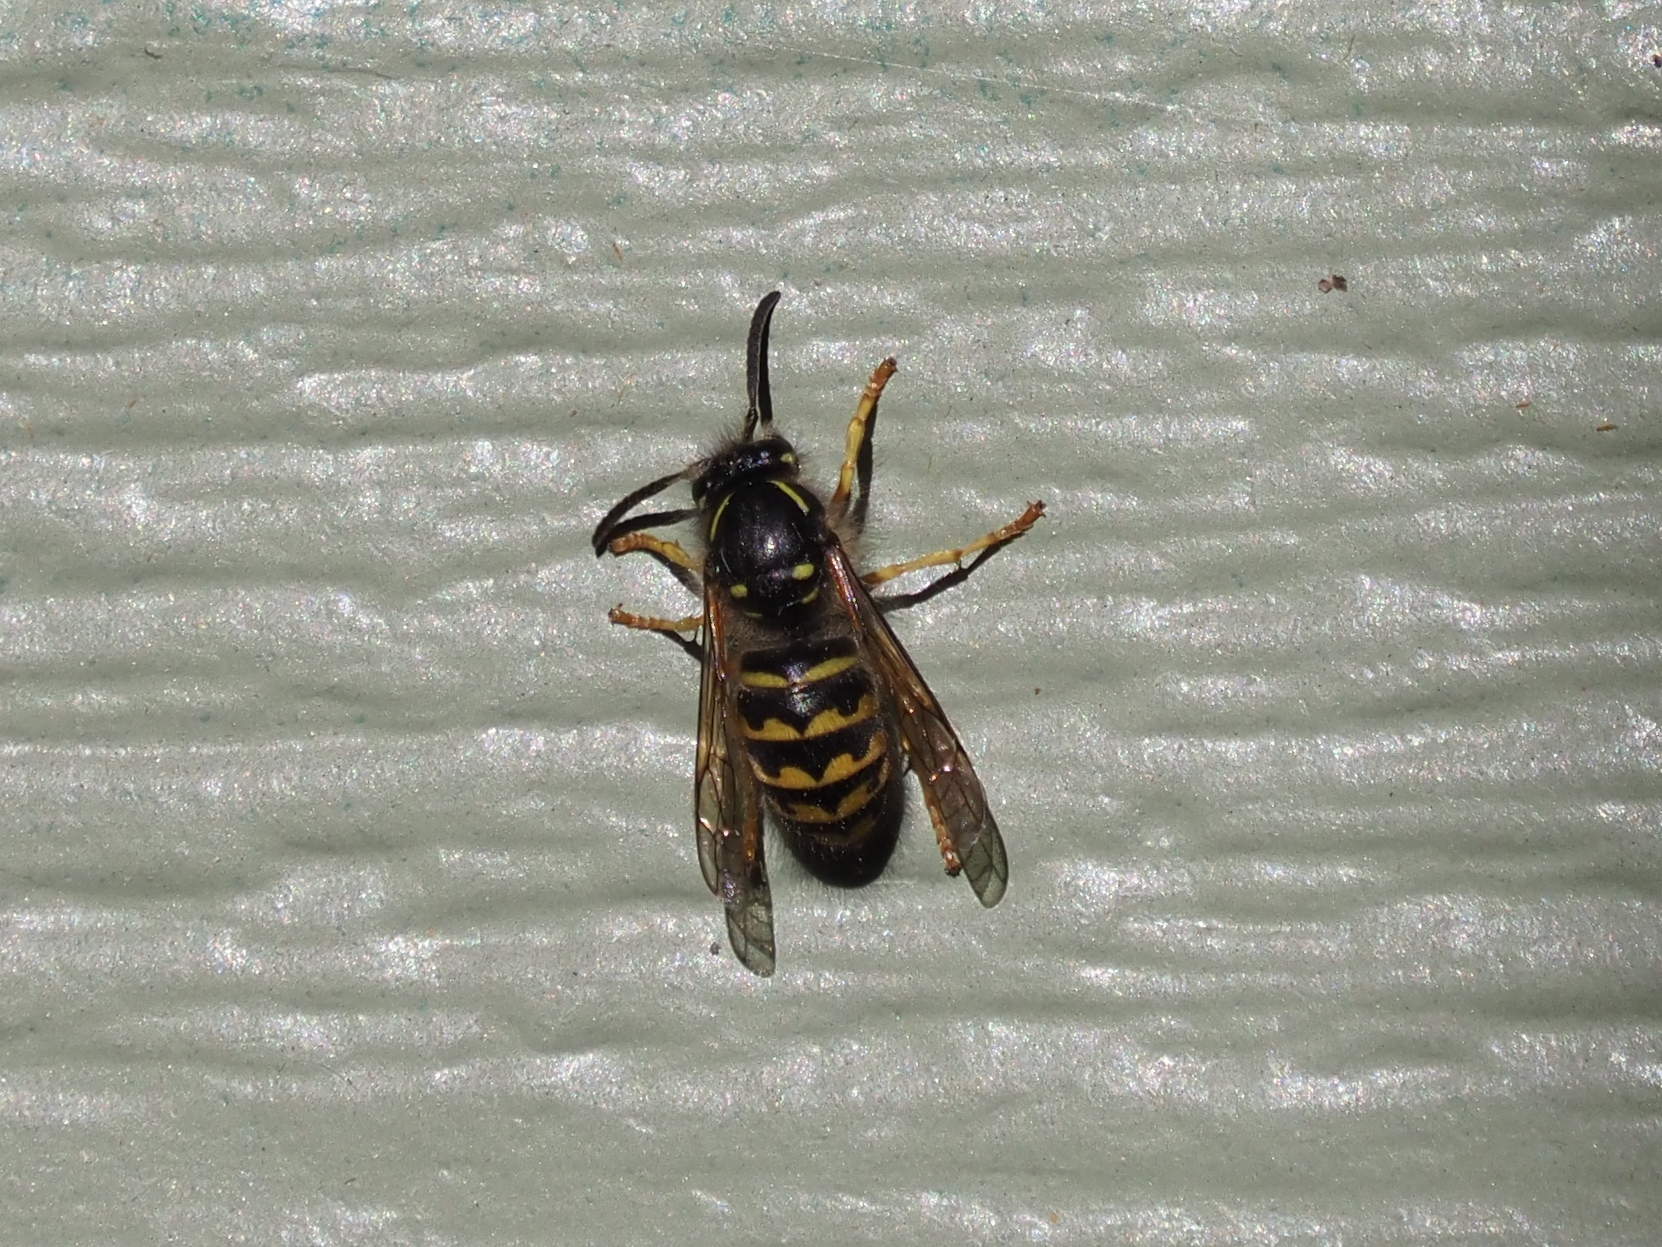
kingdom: Animalia
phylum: Arthropoda
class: Insecta
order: Hymenoptera
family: Vespidae
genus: Dolichovespula
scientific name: Dolichovespula arenaria
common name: Aerial yellowjacket
